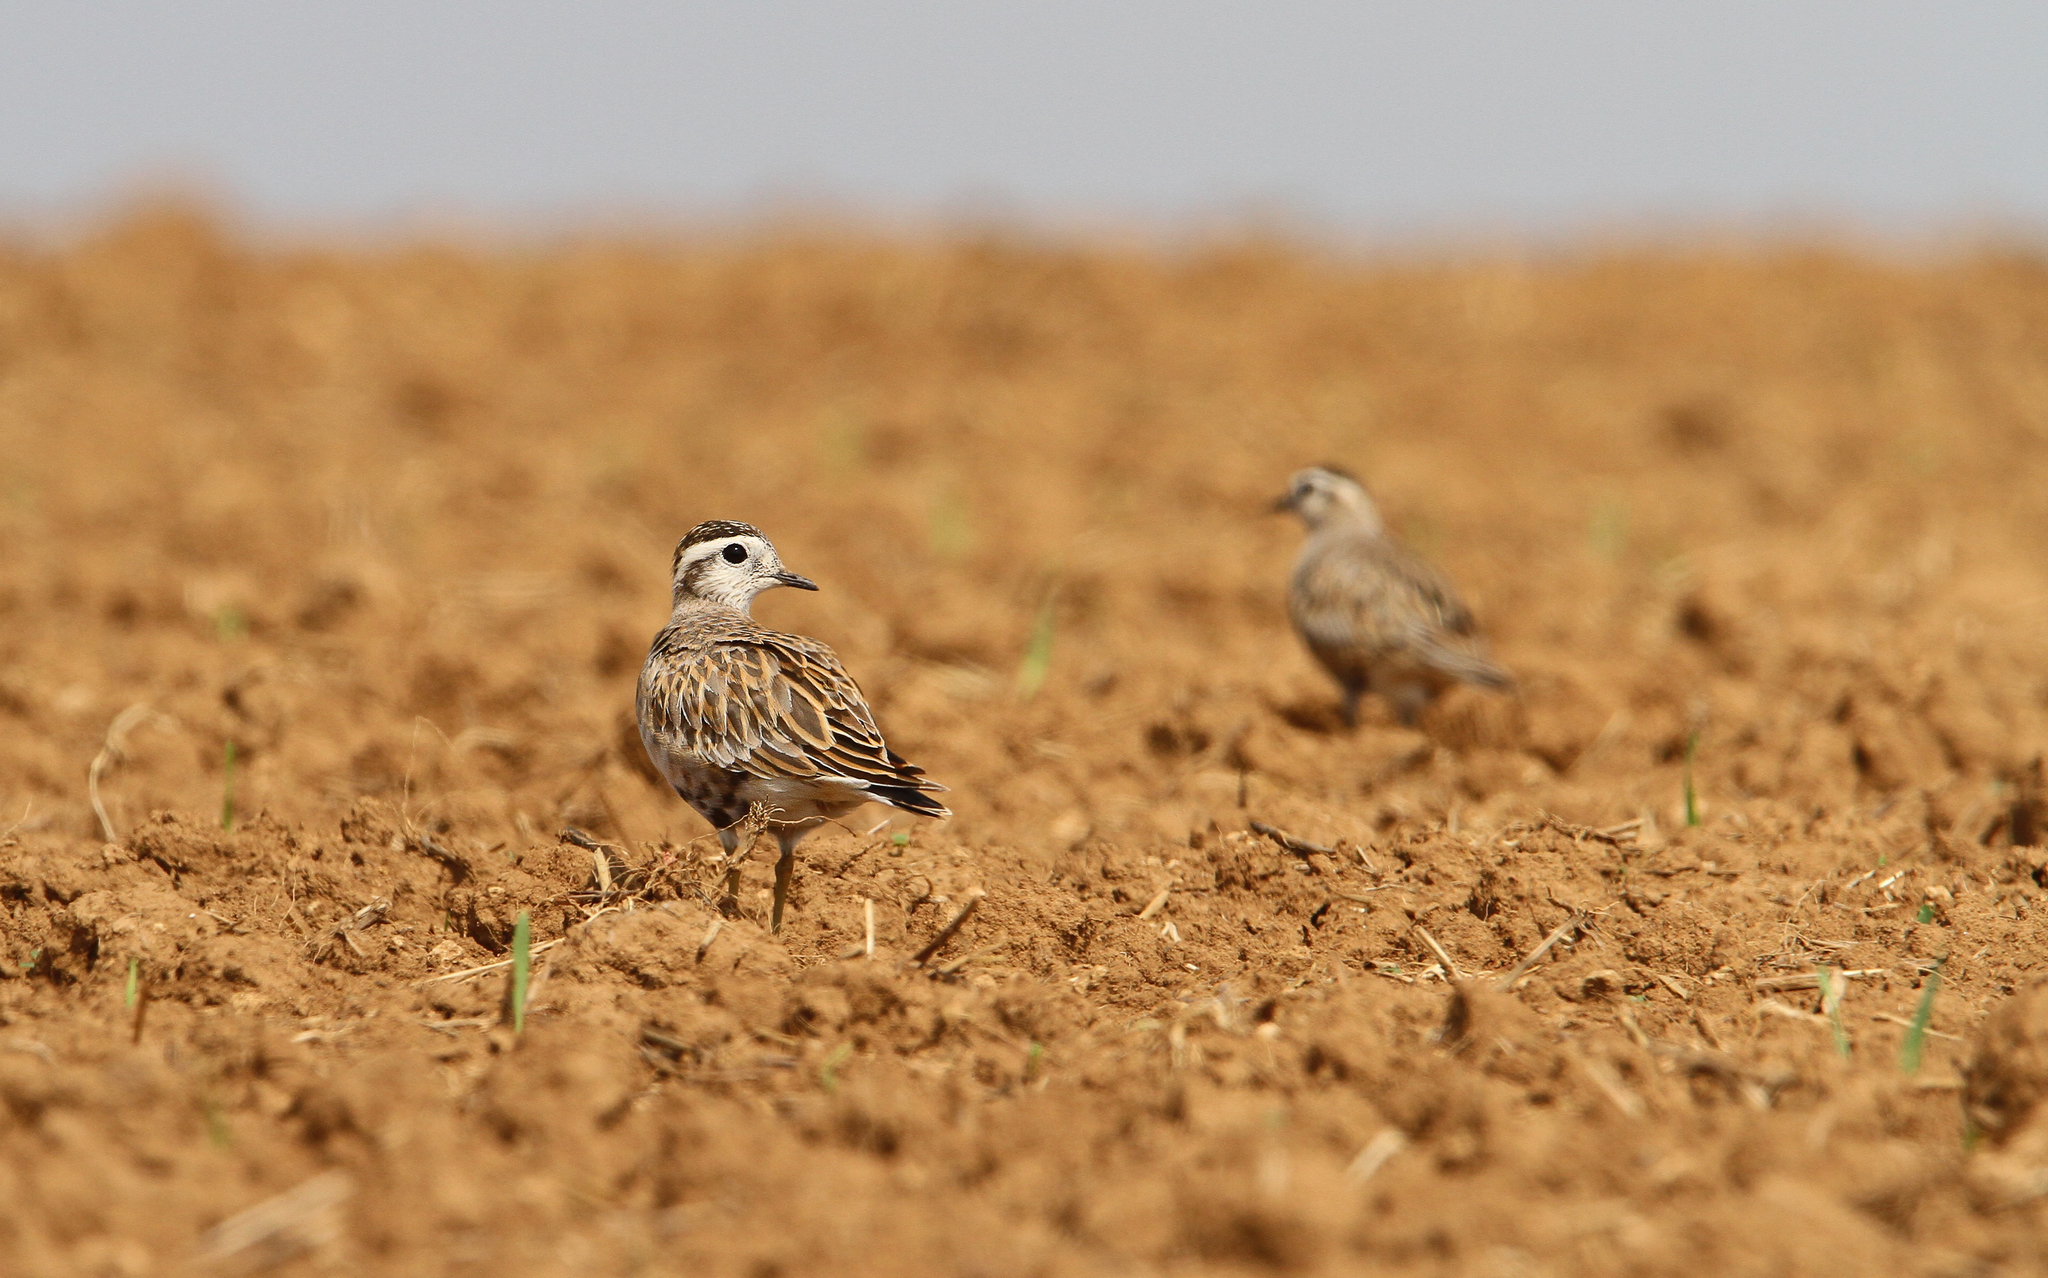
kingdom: Animalia
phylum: Chordata
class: Aves
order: Charadriiformes
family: Charadriidae
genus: Charadrius
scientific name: Charadrius morinellus
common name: Eurasian dotterel
